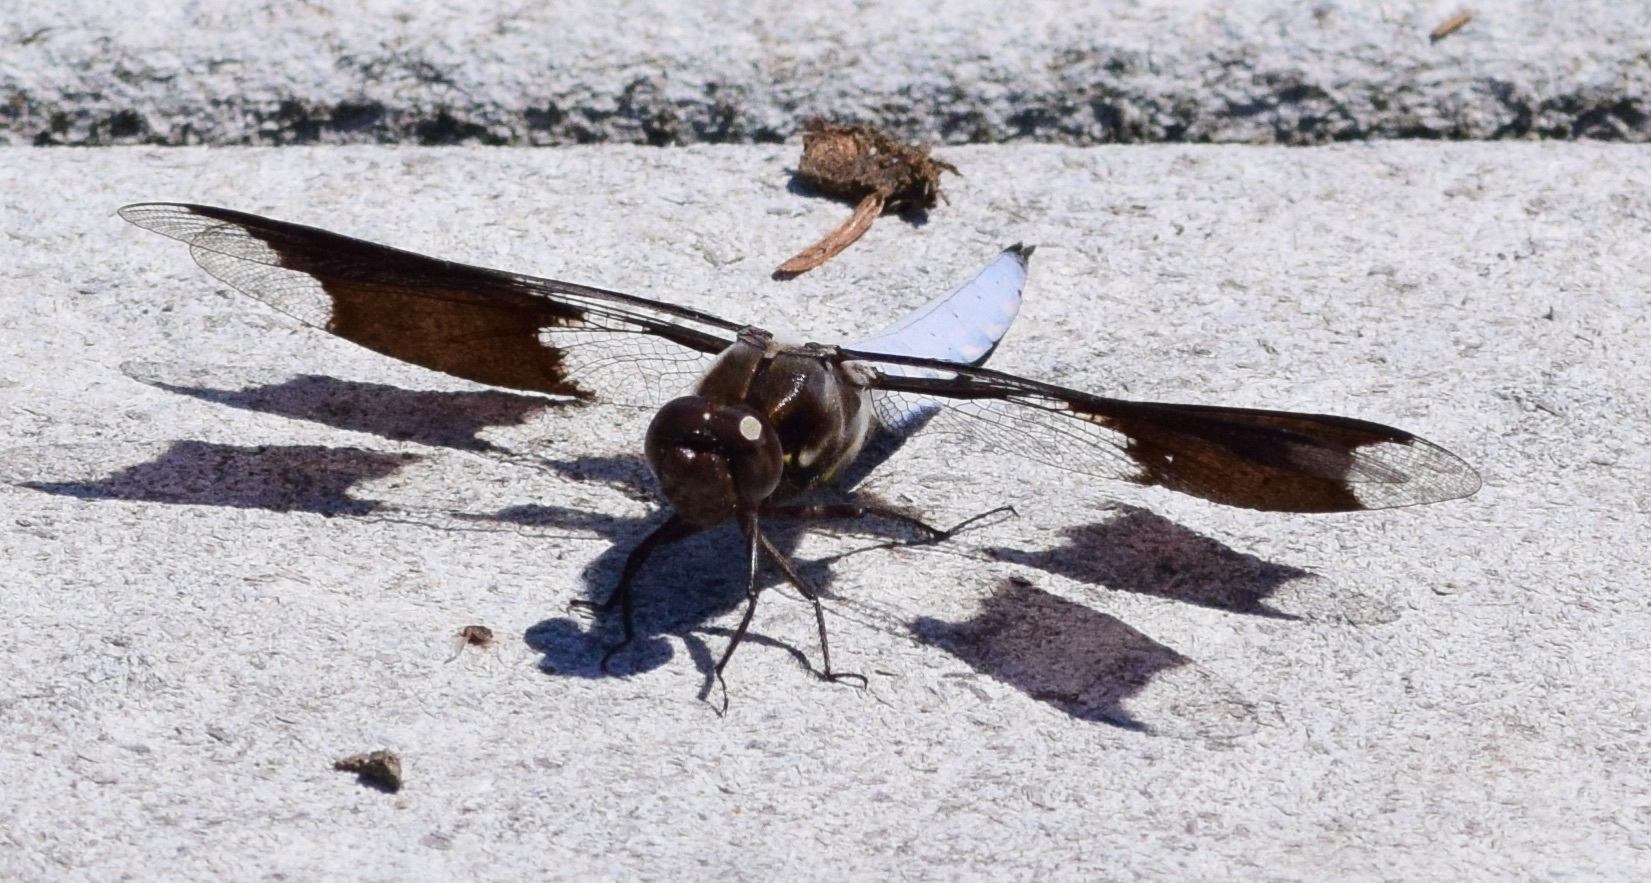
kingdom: Animalia
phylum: Arthropoda
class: Insecta
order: Odonata
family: Libellulidae
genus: Plathemis
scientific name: Plathemis lydia
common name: Common whitetail
